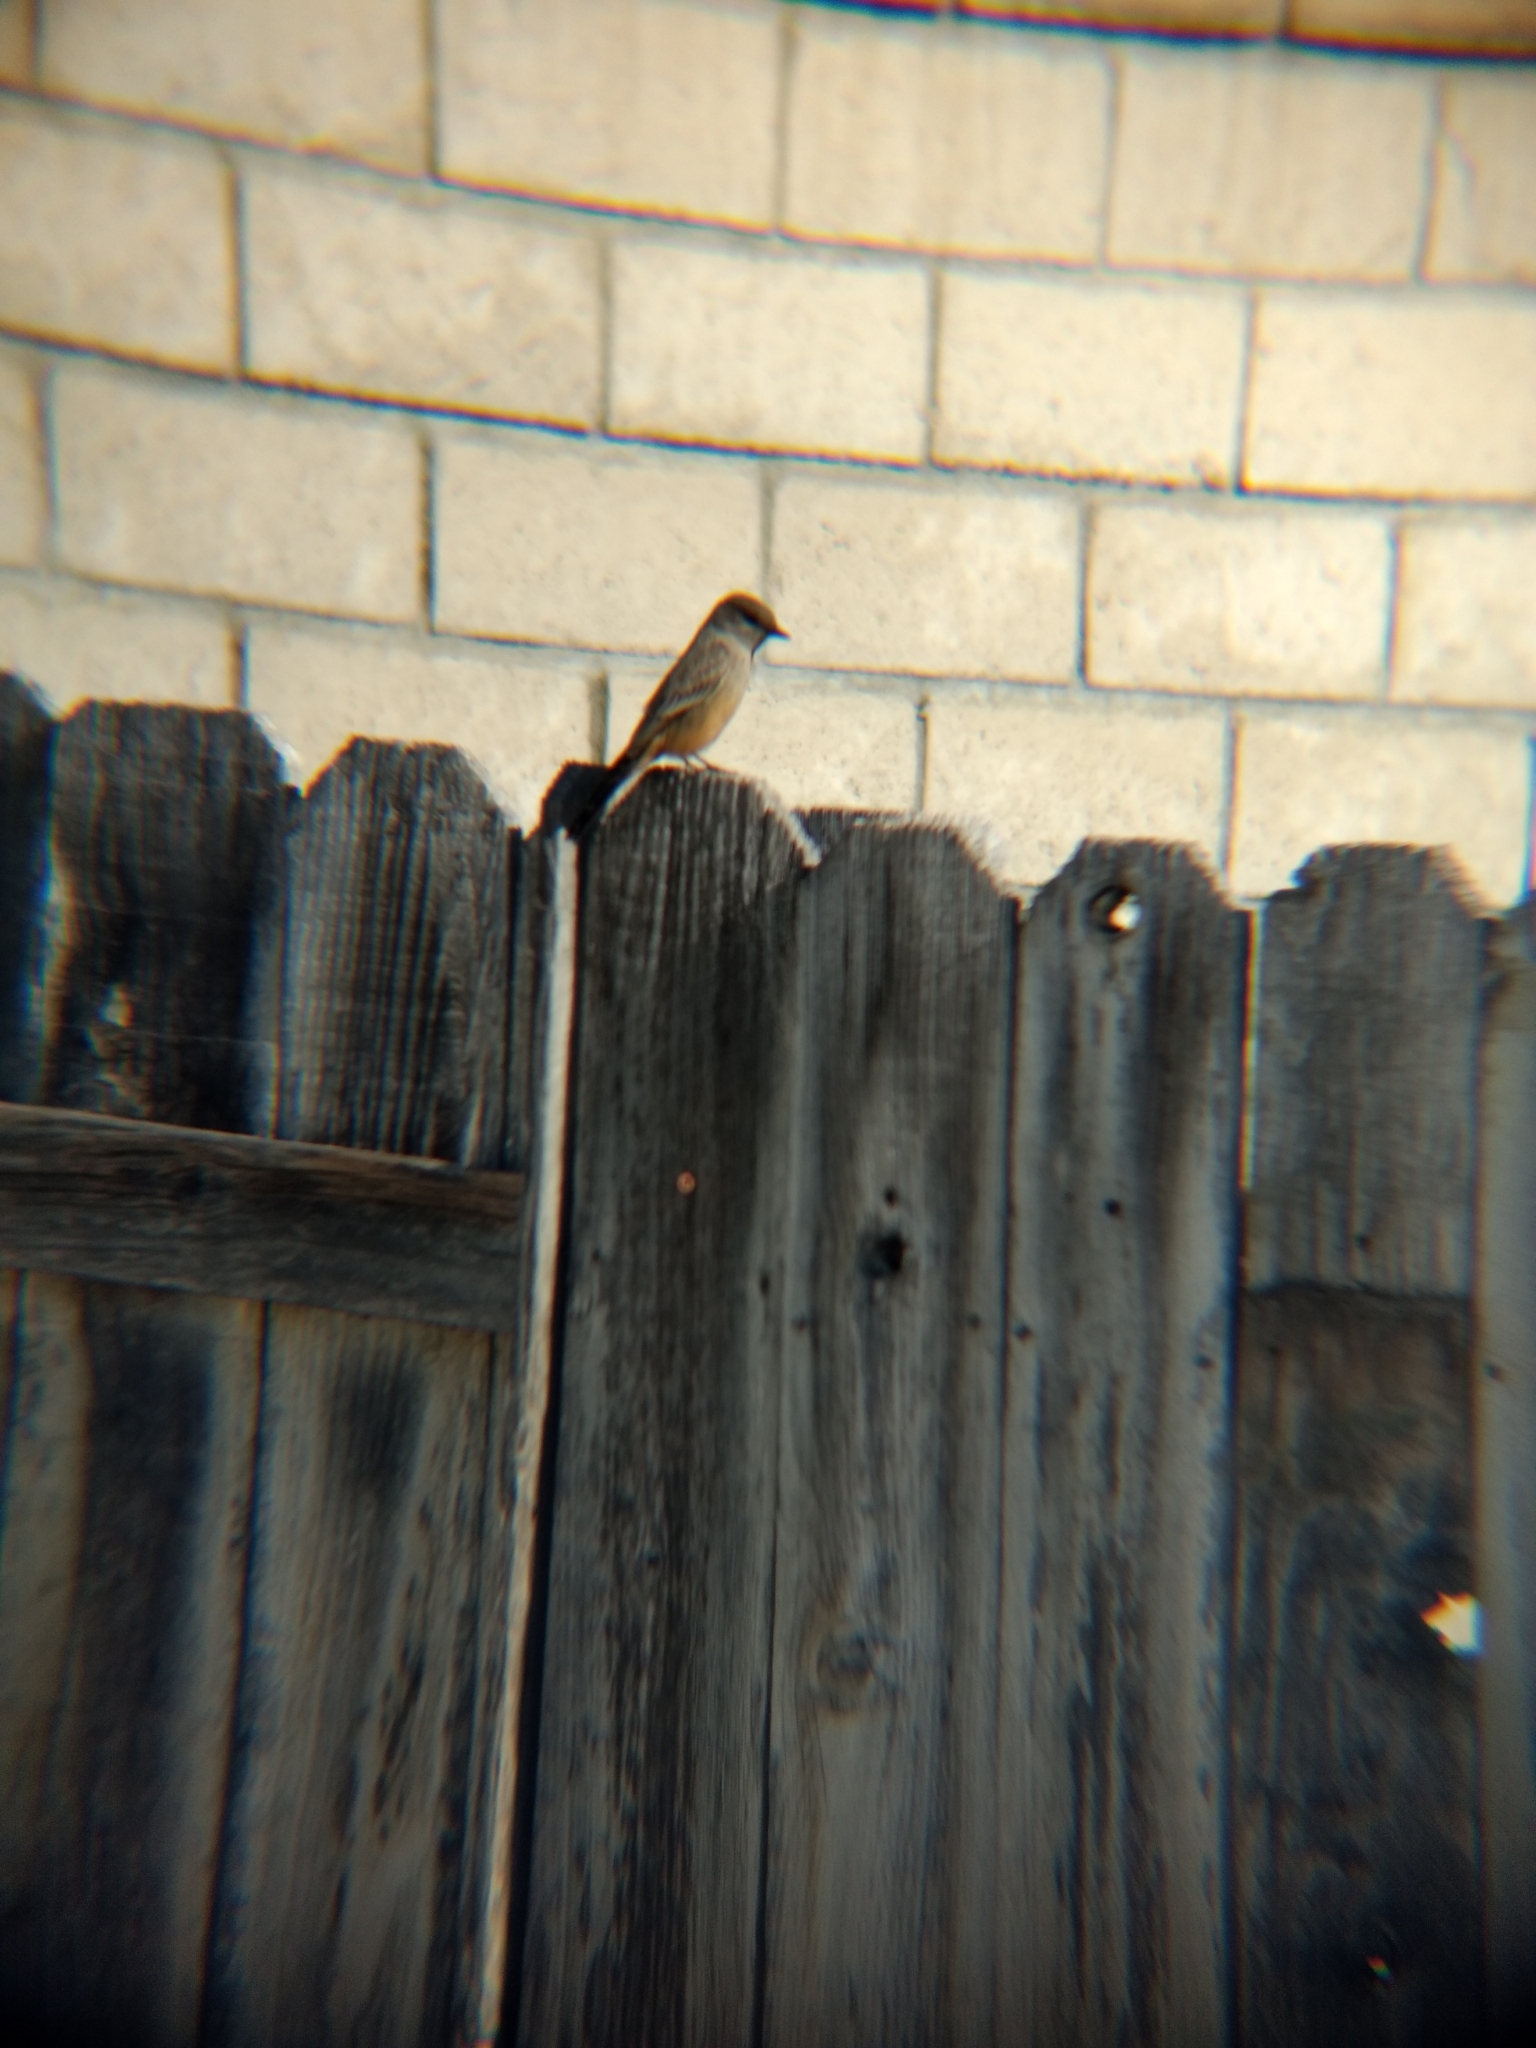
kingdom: Animalia
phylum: Chordata
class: Aves
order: Passeriformes
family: Tyrannidae
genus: Sayornis
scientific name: Sayornis saya
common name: Say's phoebe
